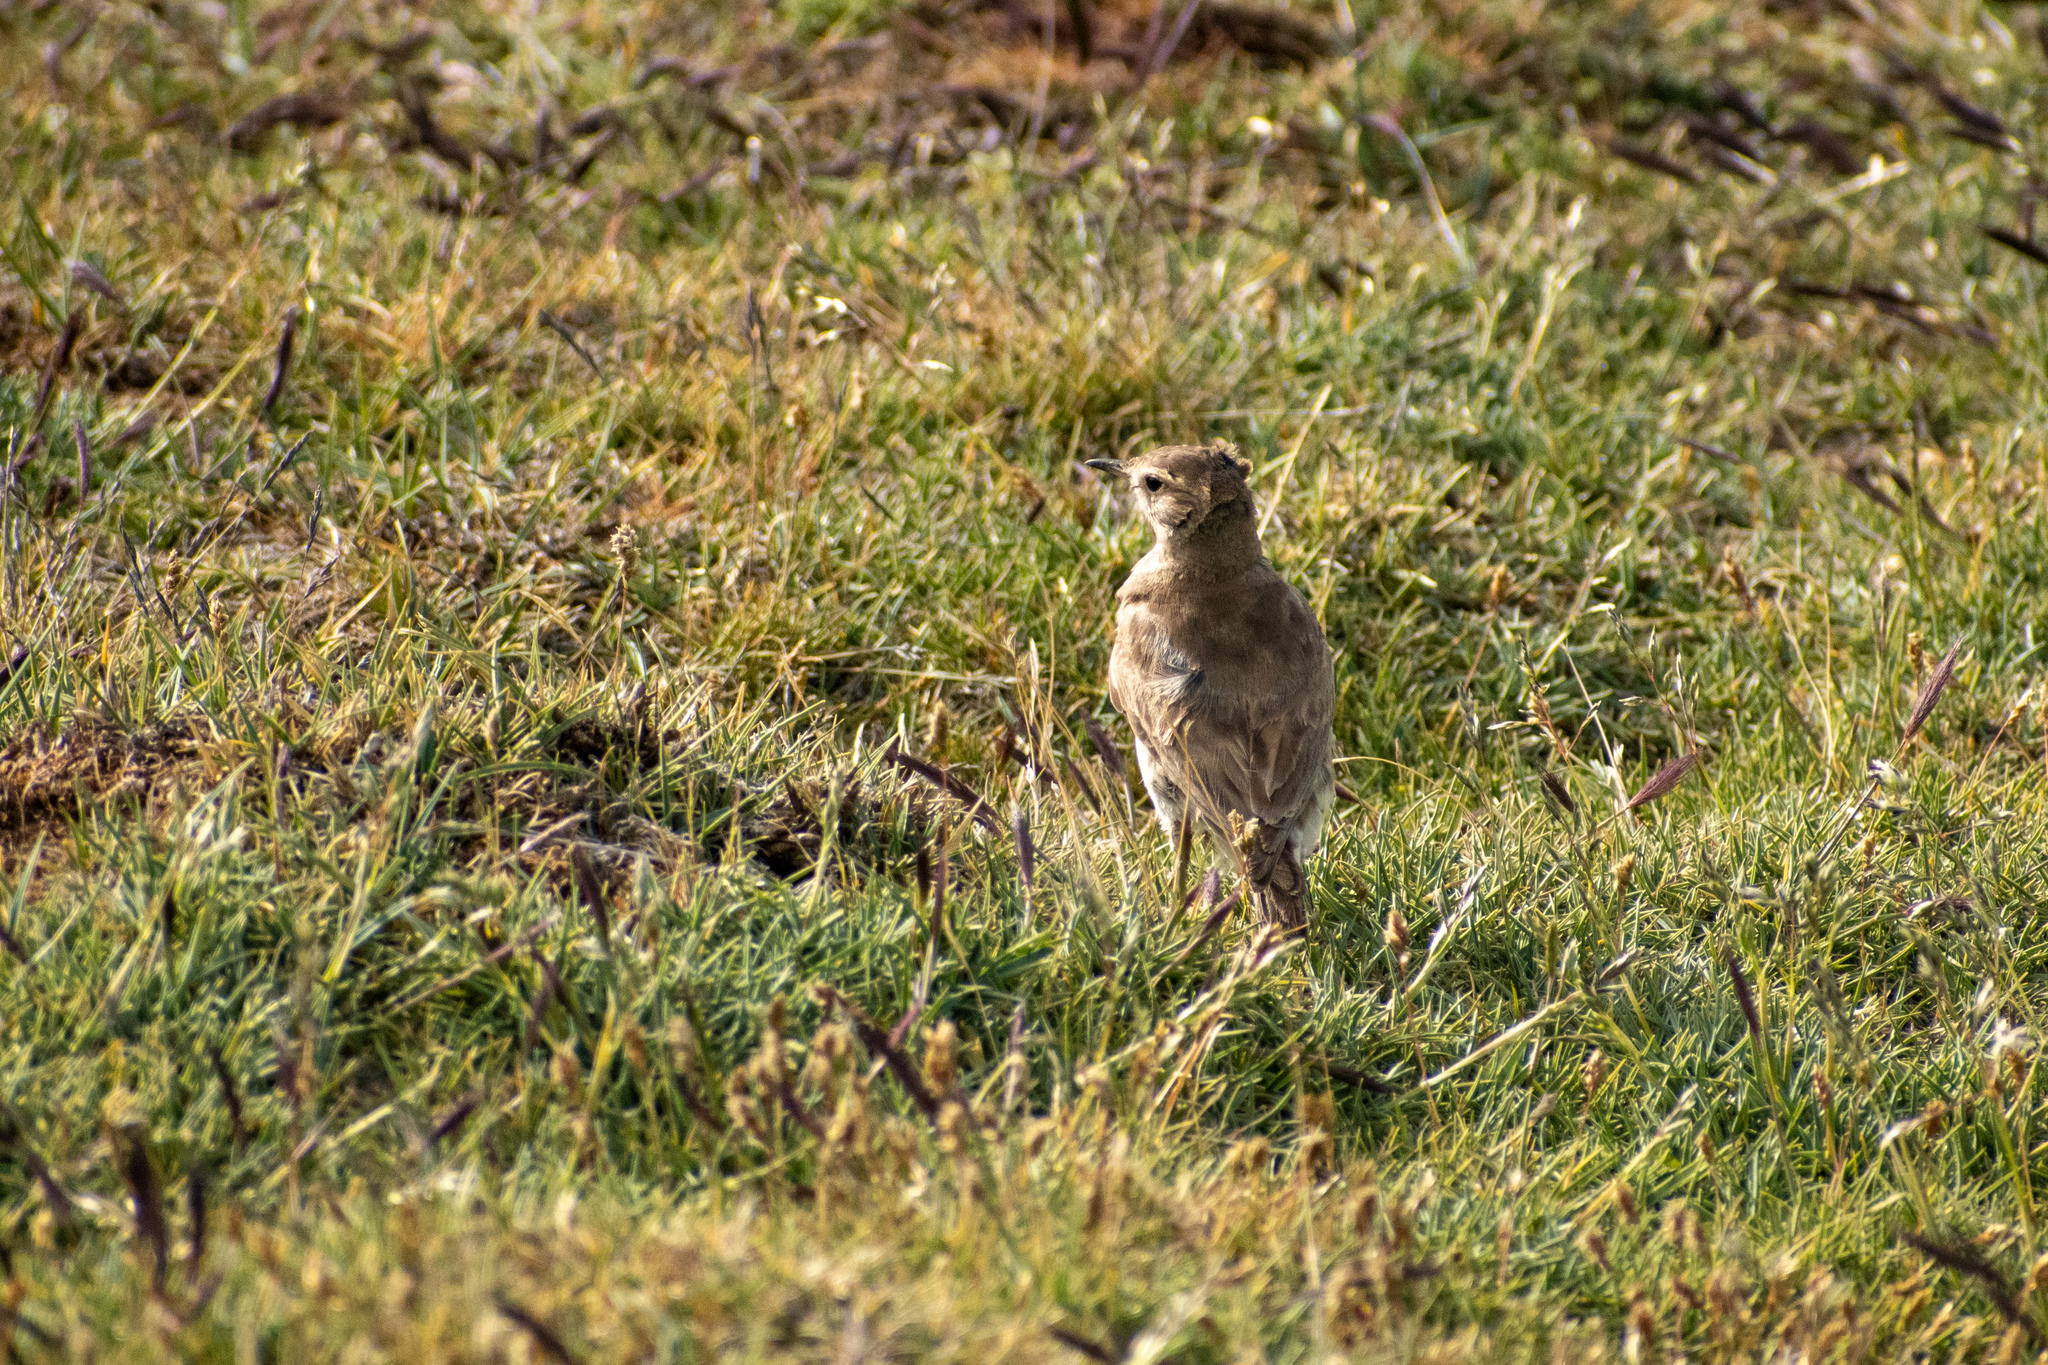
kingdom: Animalia
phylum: Chordata
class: Aves
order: Passeriformes
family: Furnariidae
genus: Geositta
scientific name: Geositta antarctica
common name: Short-billed miner
